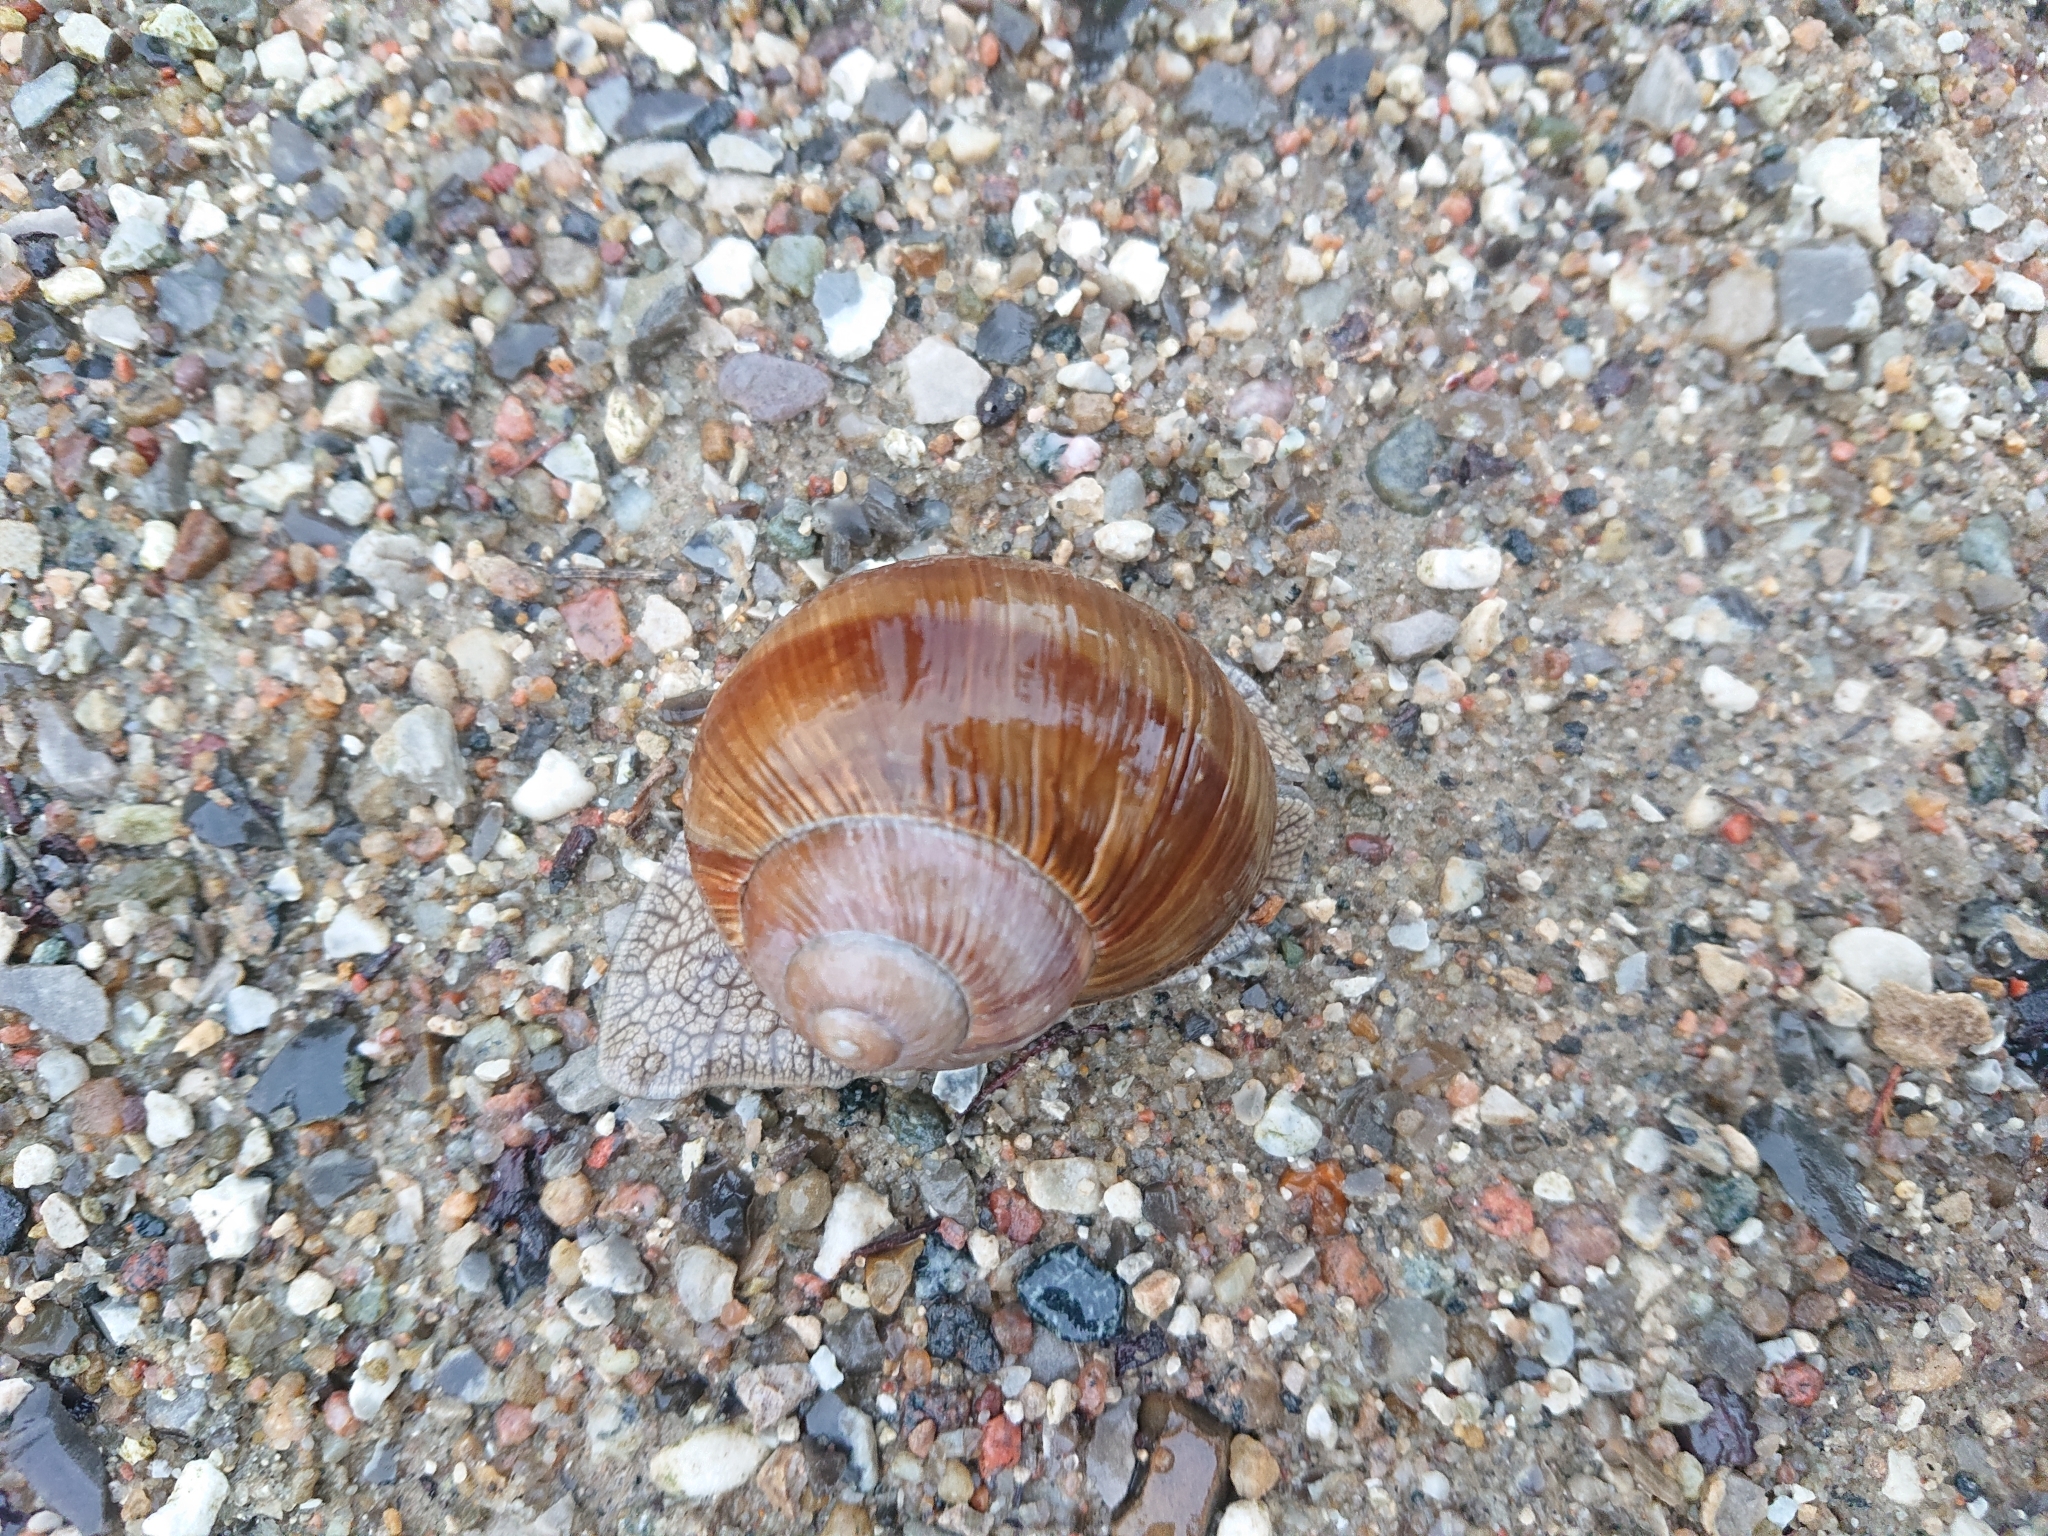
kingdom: Animalia
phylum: Mollusca
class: Gastropoda
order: Stylommatophora
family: Helicidae
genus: Helix
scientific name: Helix pomatia
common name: Roman snail
